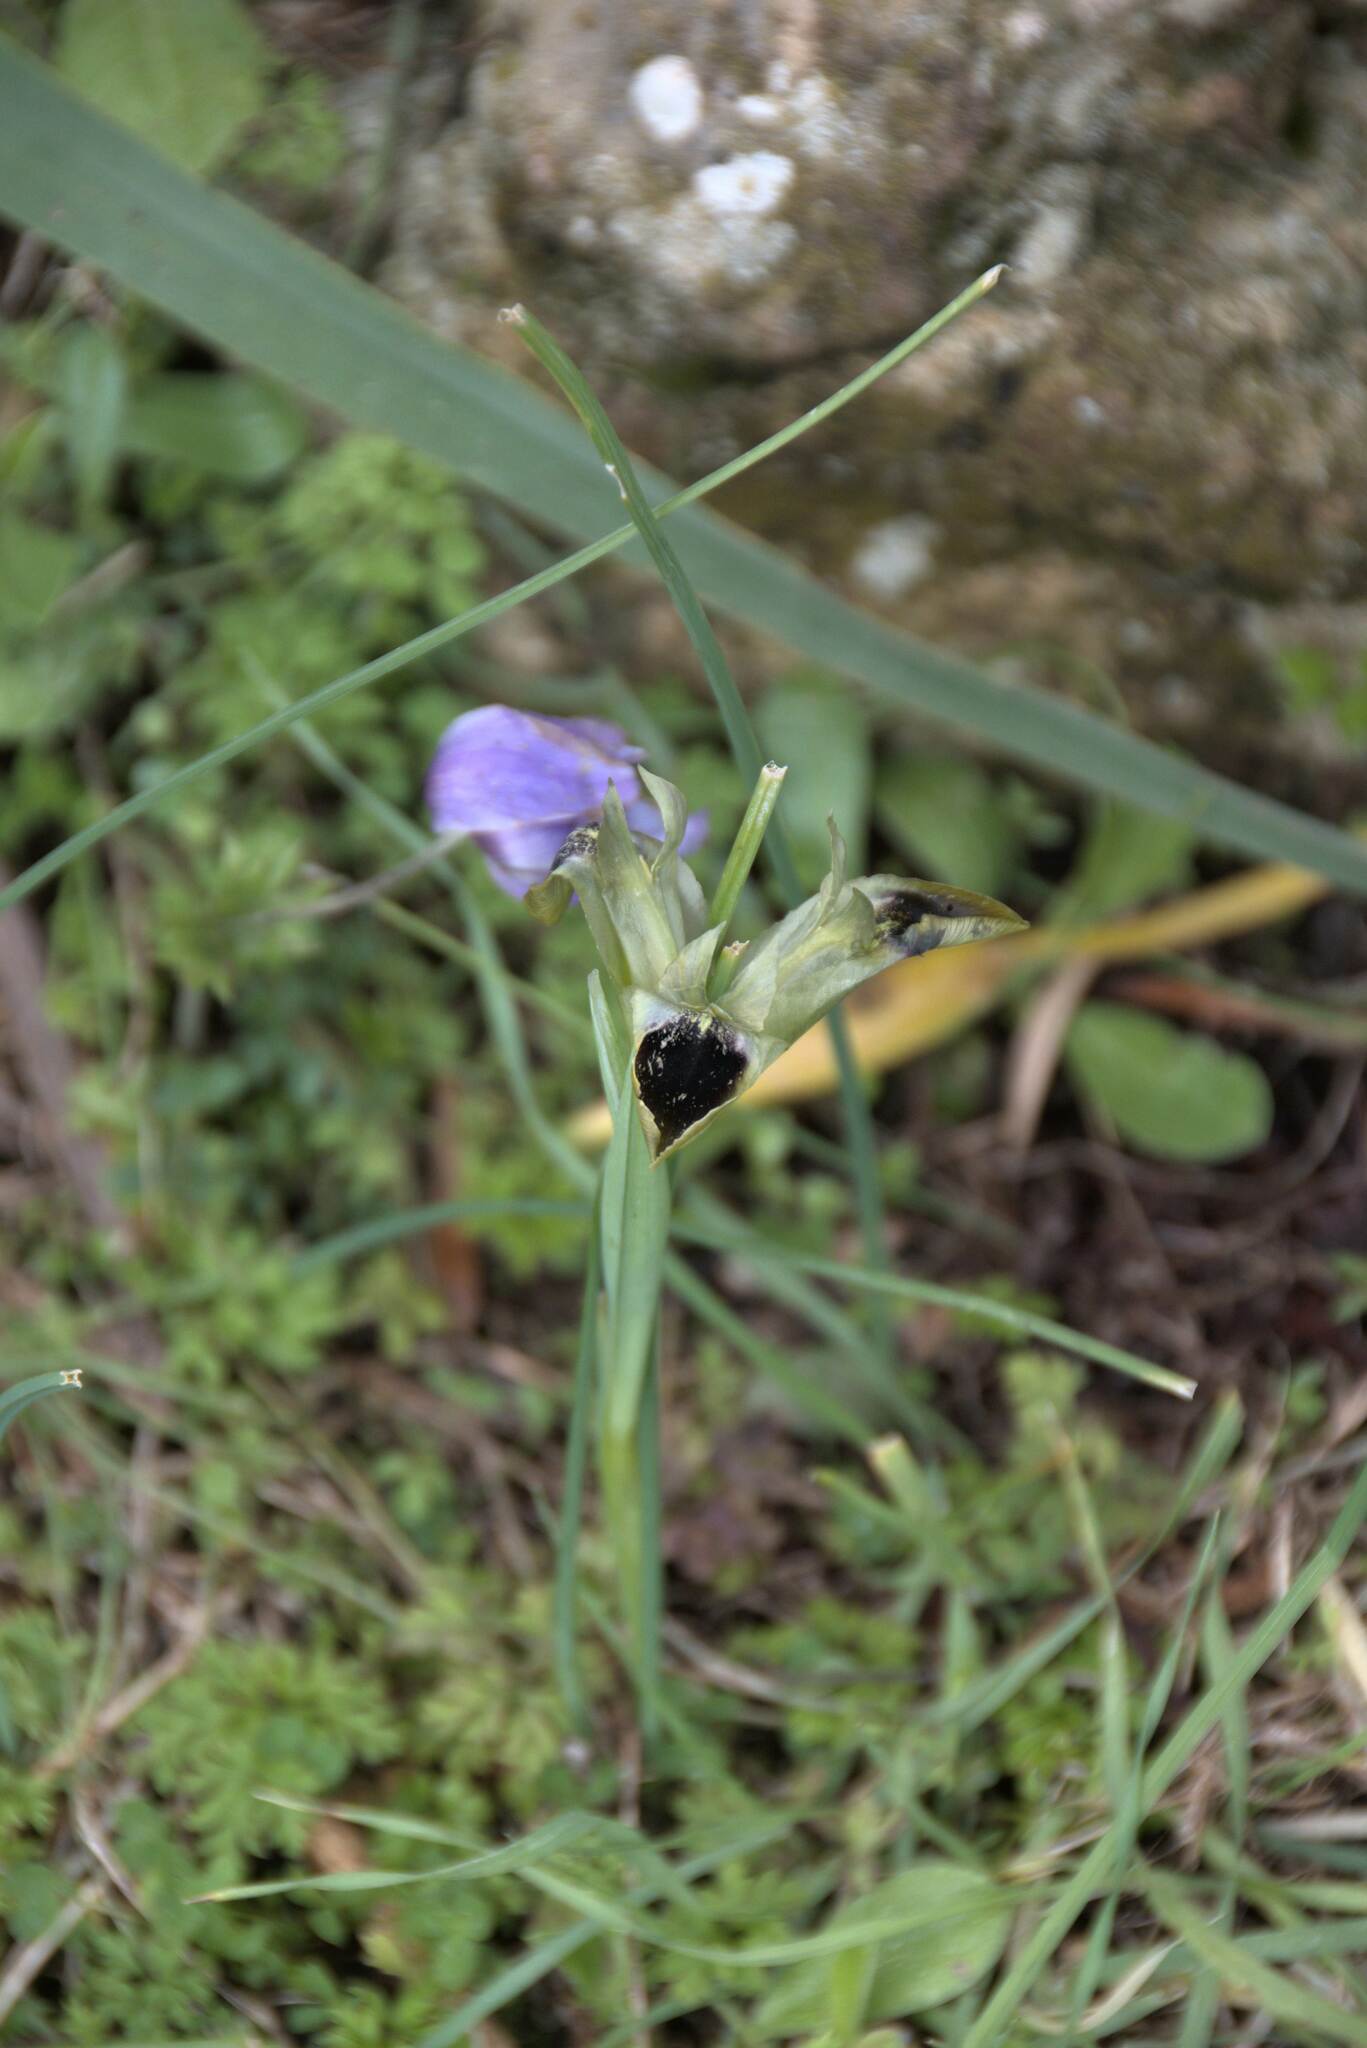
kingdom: Plantae
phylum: Tracheophyta
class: Liliopsida
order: Asparagales
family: Iridaceae
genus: Iris
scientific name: Iris tuberosa
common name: Snake's-head iris
